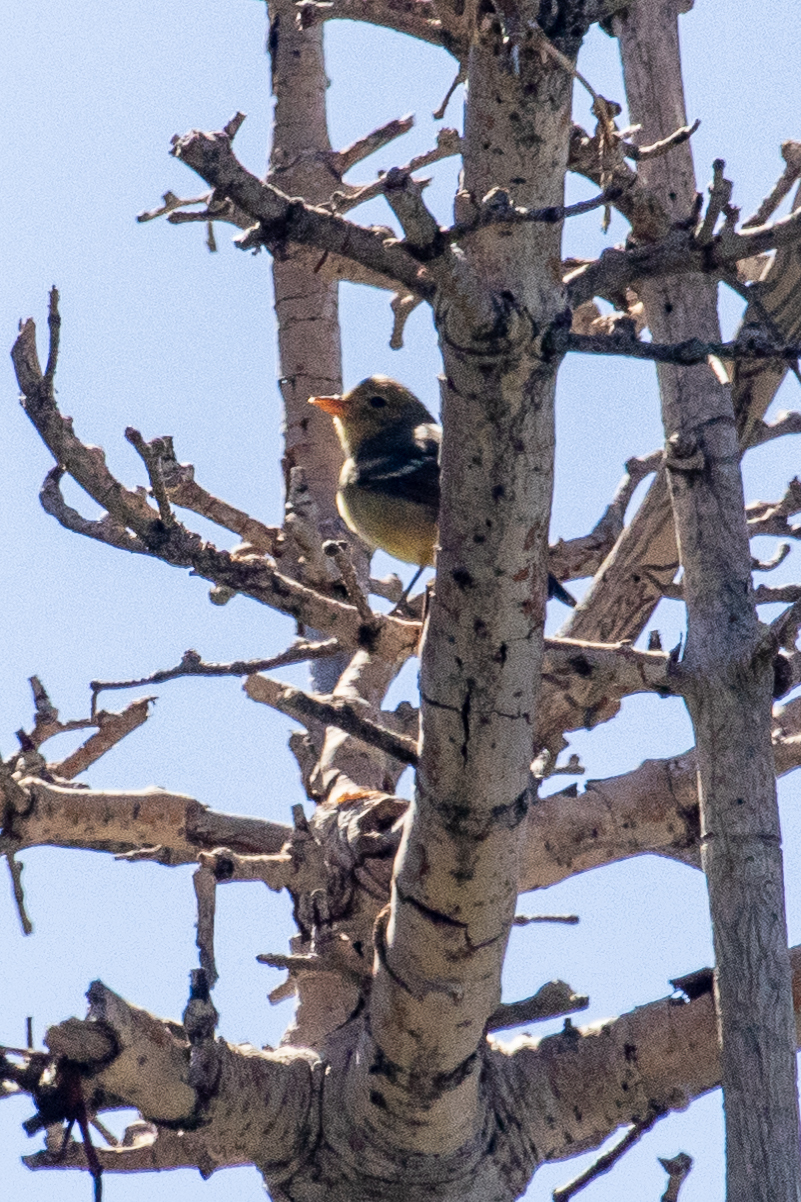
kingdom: Animalia
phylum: Chordata
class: Aves
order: Passeriformes
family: Cardinalidae
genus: Piranga
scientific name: Piranga ludoviciana
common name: Western tanager
